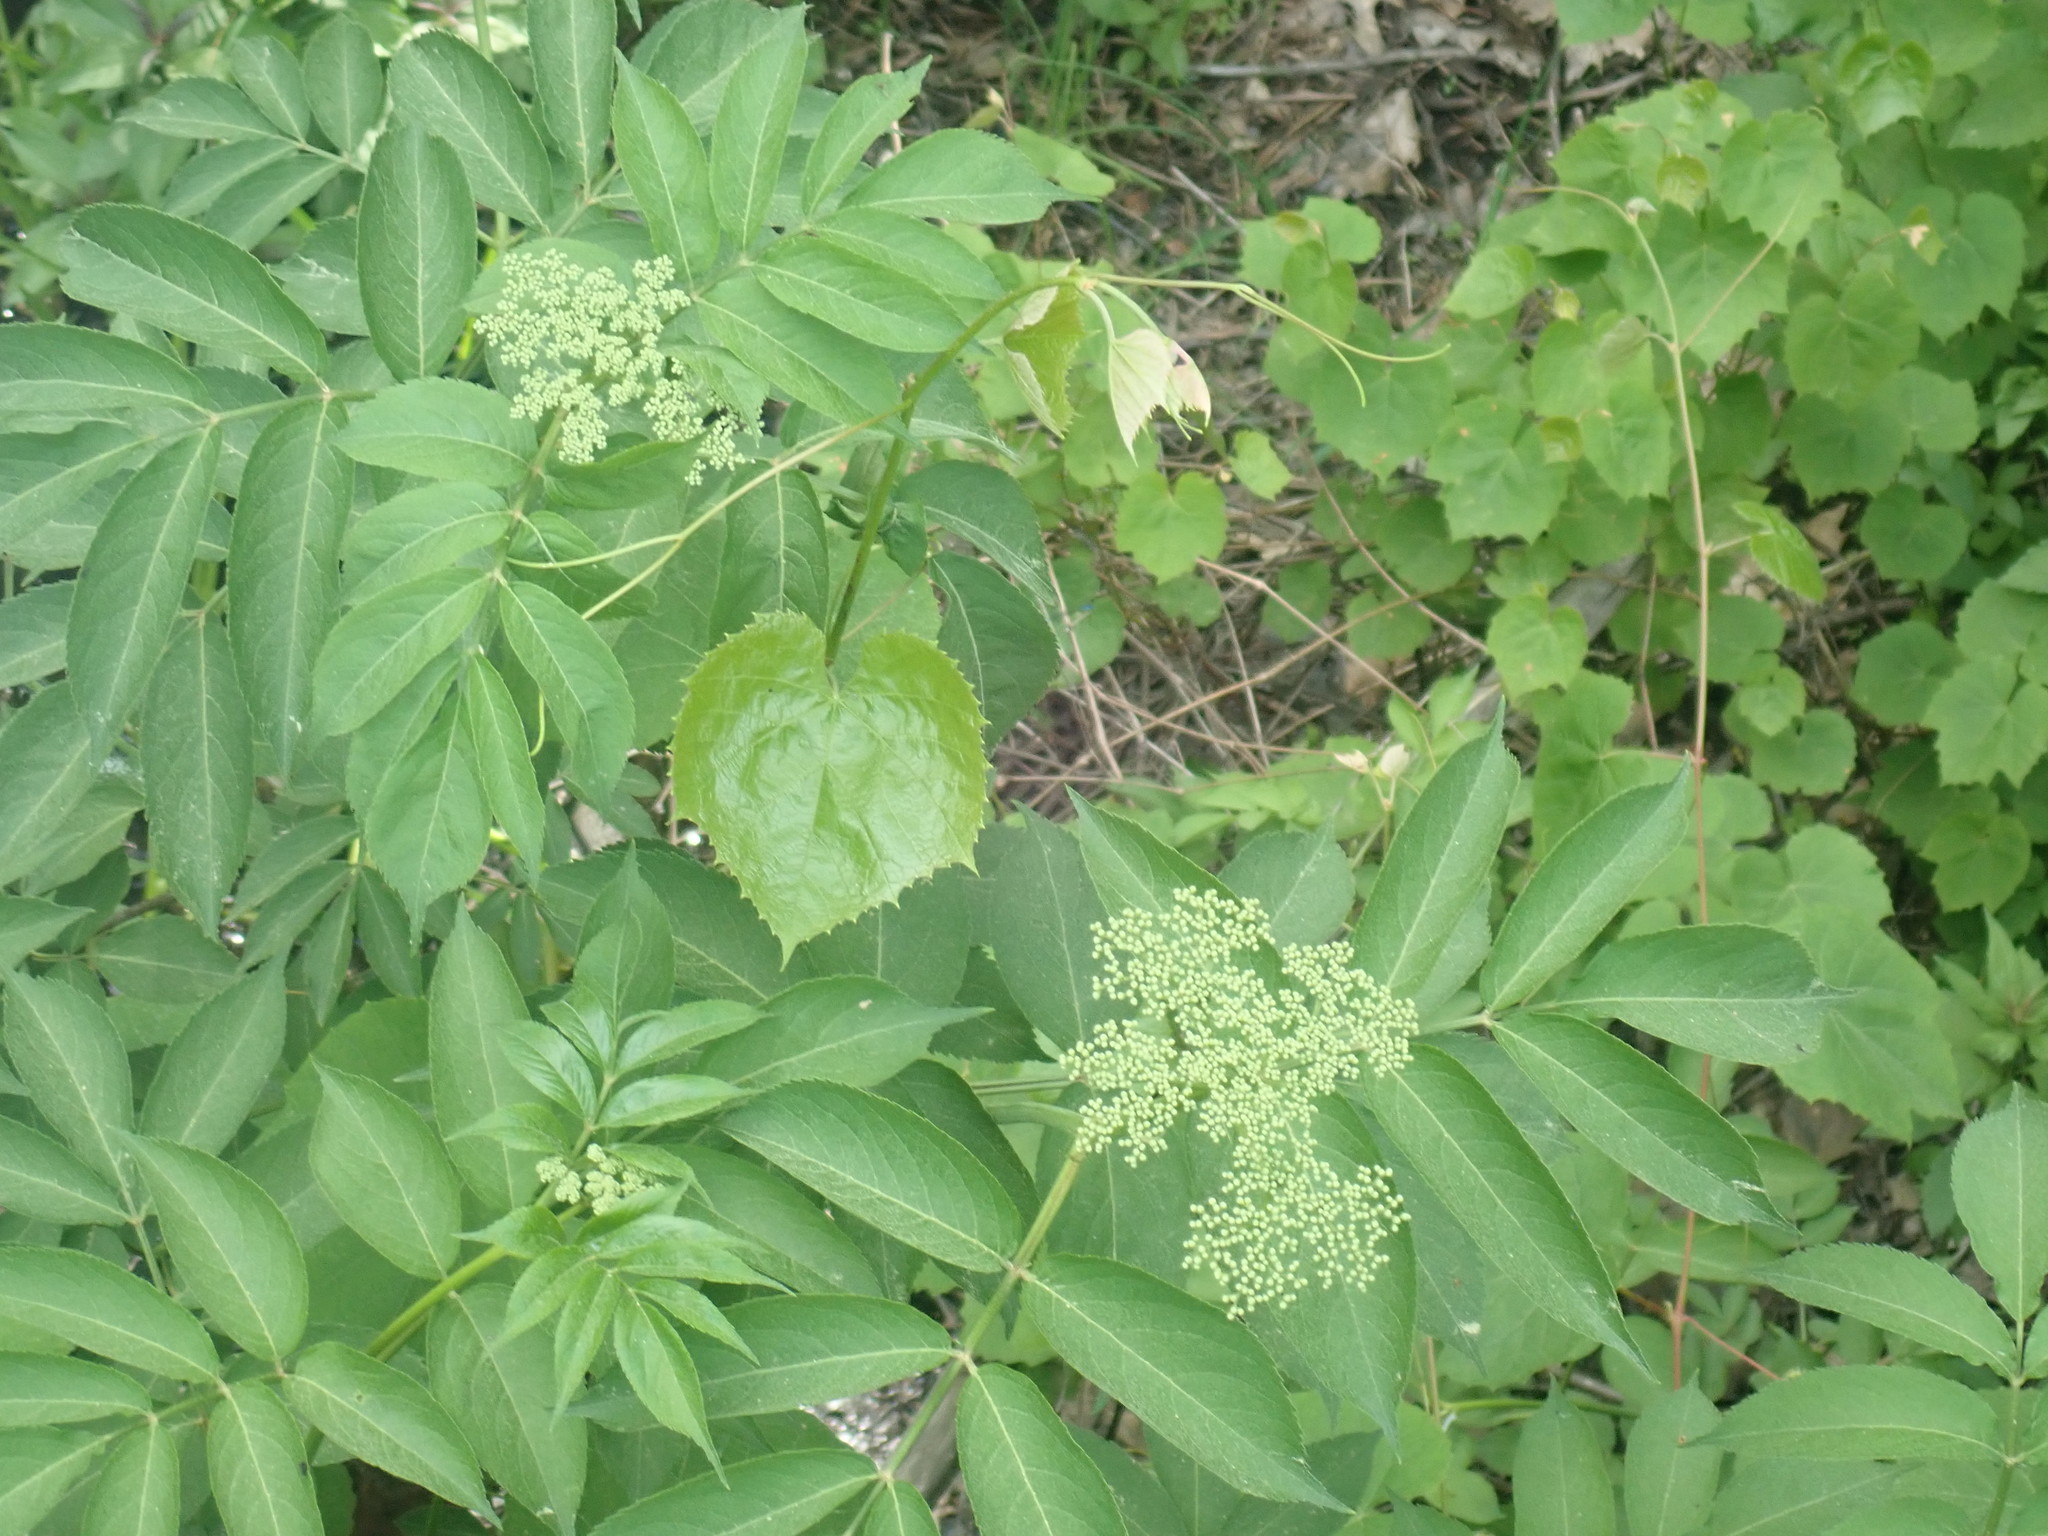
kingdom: Plantae
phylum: Tracheophyta
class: Magnoliopsida
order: Dipsacales
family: Viburnaceae
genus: Sambucus
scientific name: Sambucus canadensis
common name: American elder
